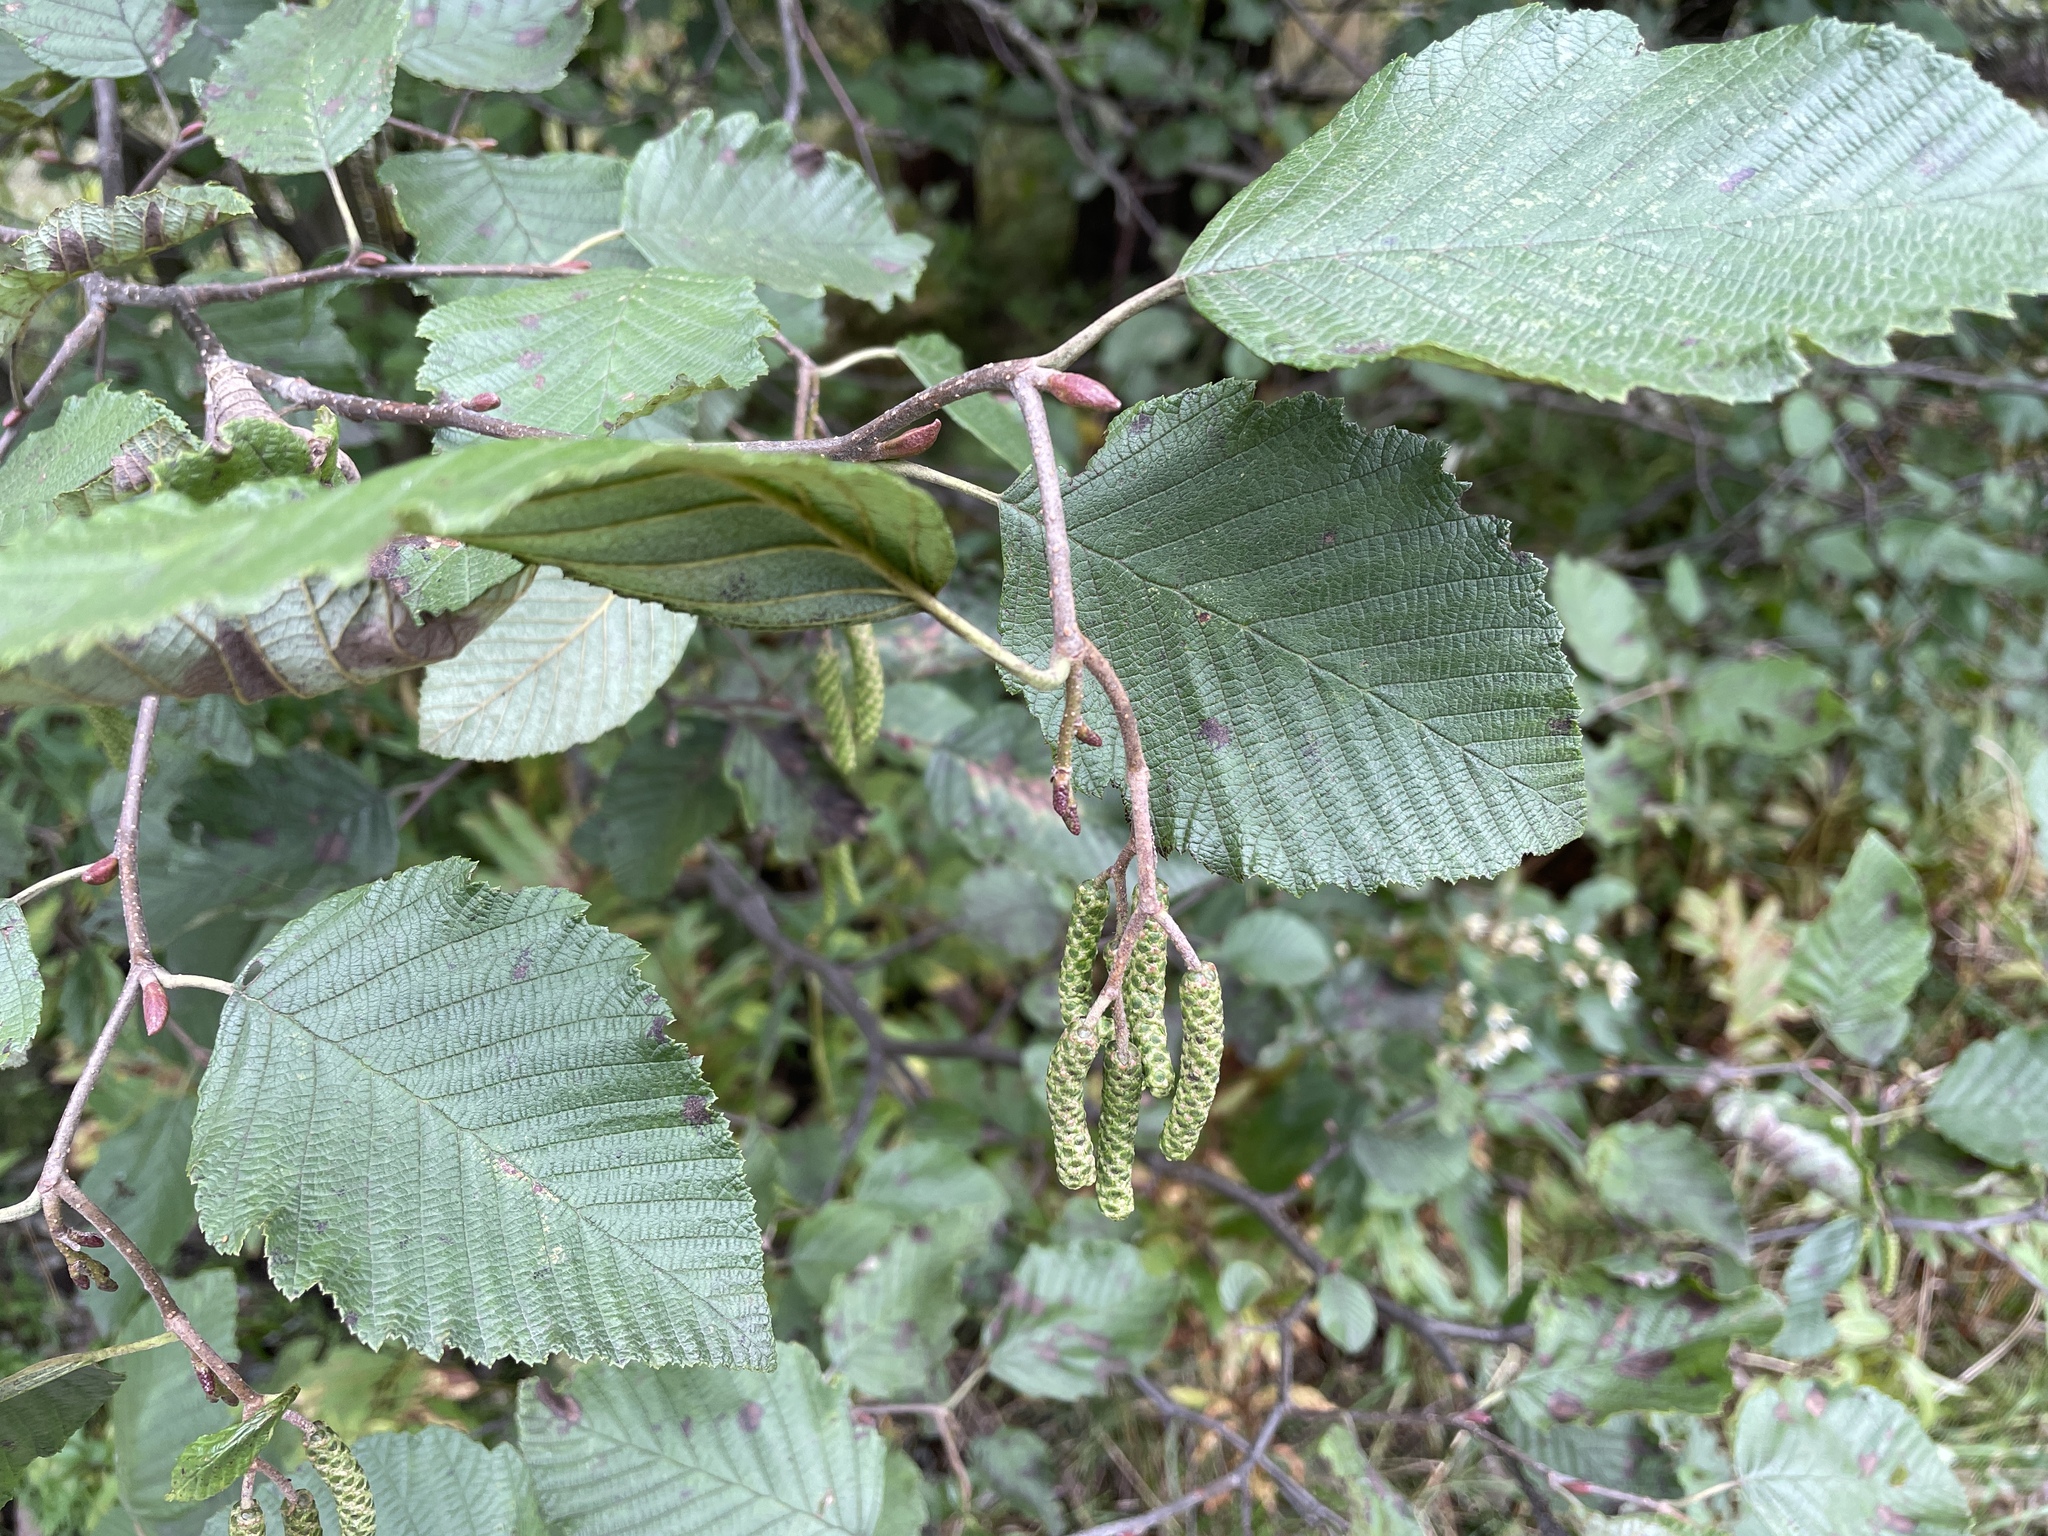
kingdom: Plantae
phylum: Tracheophyta
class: Magnoliopsida
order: Fagales
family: Betulaceae
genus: Alnus
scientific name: Alnus incana
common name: Grey alder
